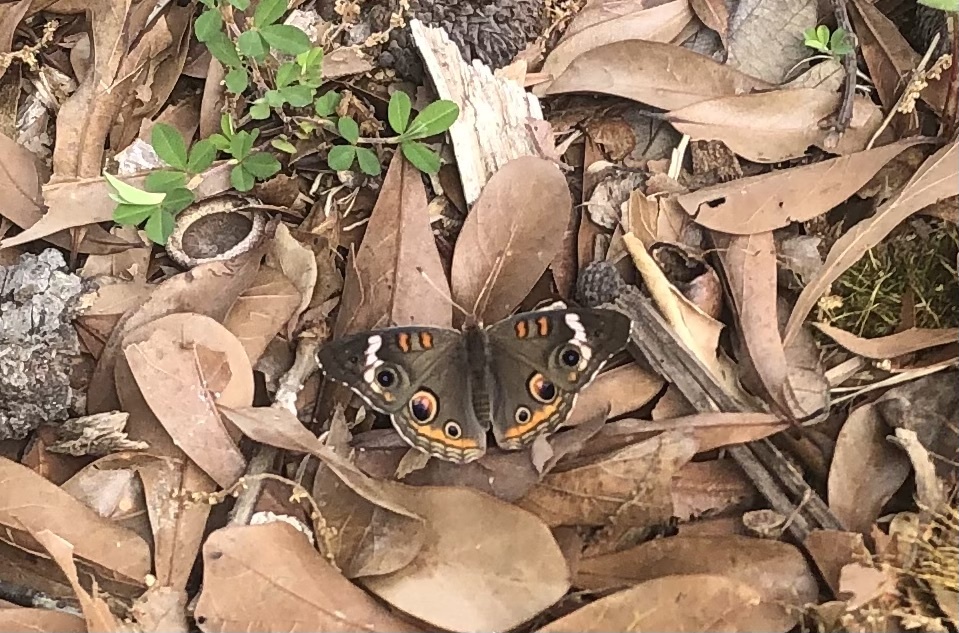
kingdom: Animalia
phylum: Arthropoda
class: Insecta
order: Lepidoptera
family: Nymphalidae
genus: Junonia
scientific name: Junonia coenia
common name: Common buckeye
